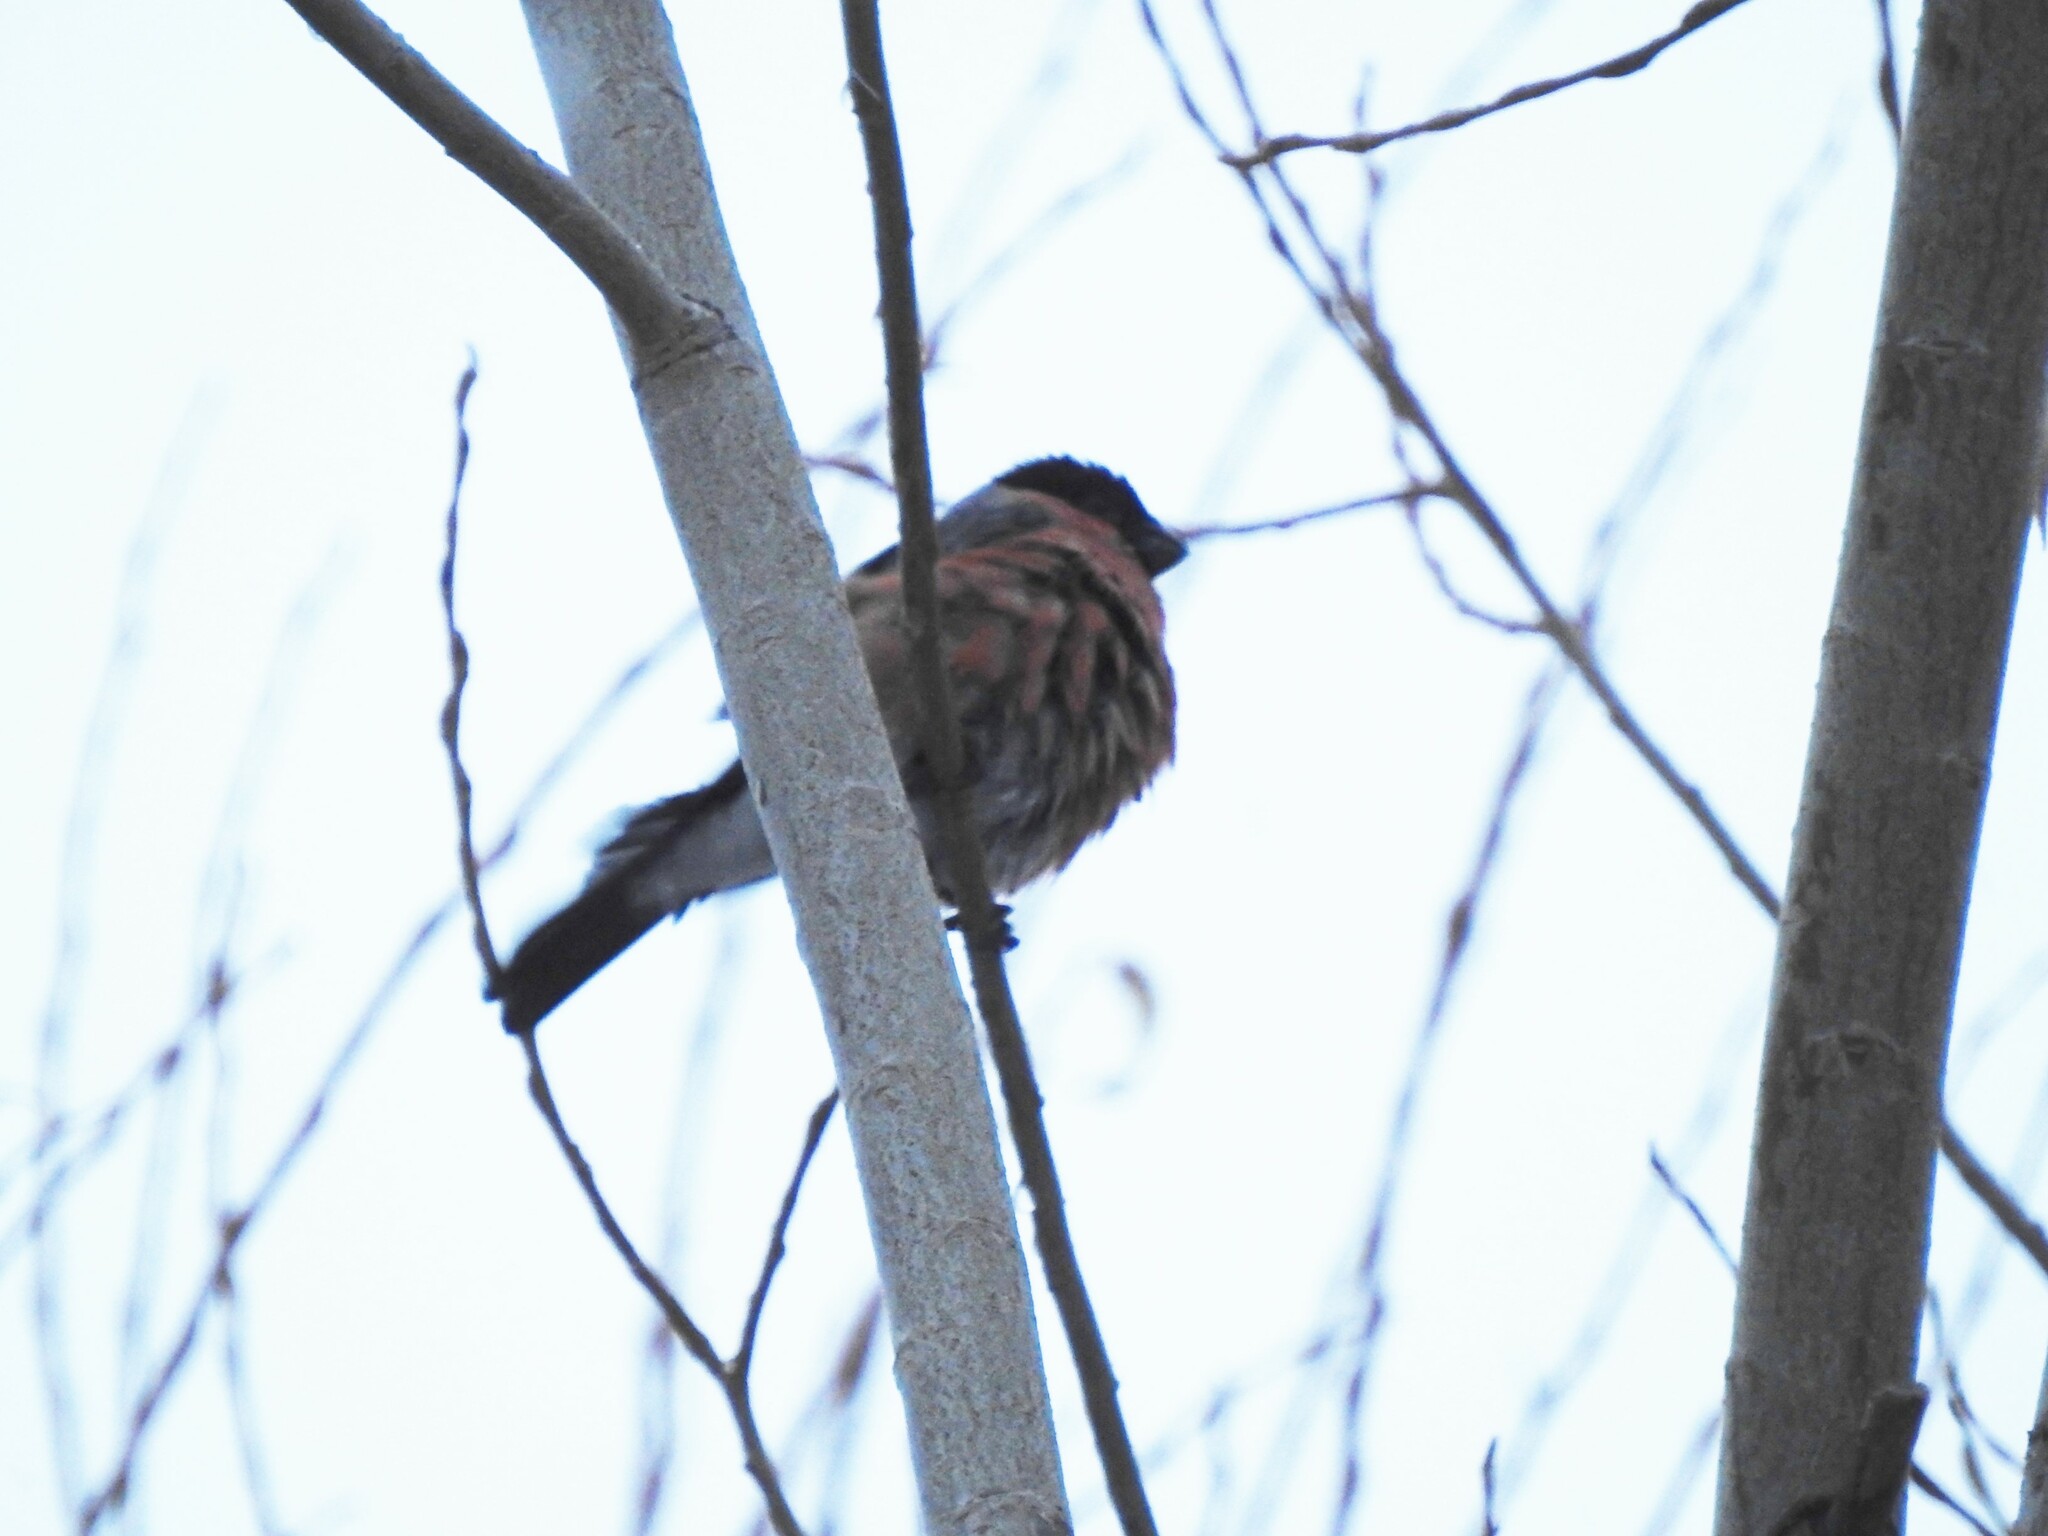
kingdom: Animalia
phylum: Chordata
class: Aves
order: Passeriformes
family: Fringillidae
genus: Pyrrhula
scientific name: Pyrrhula pyrrhula
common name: Eurasian bullfinch
